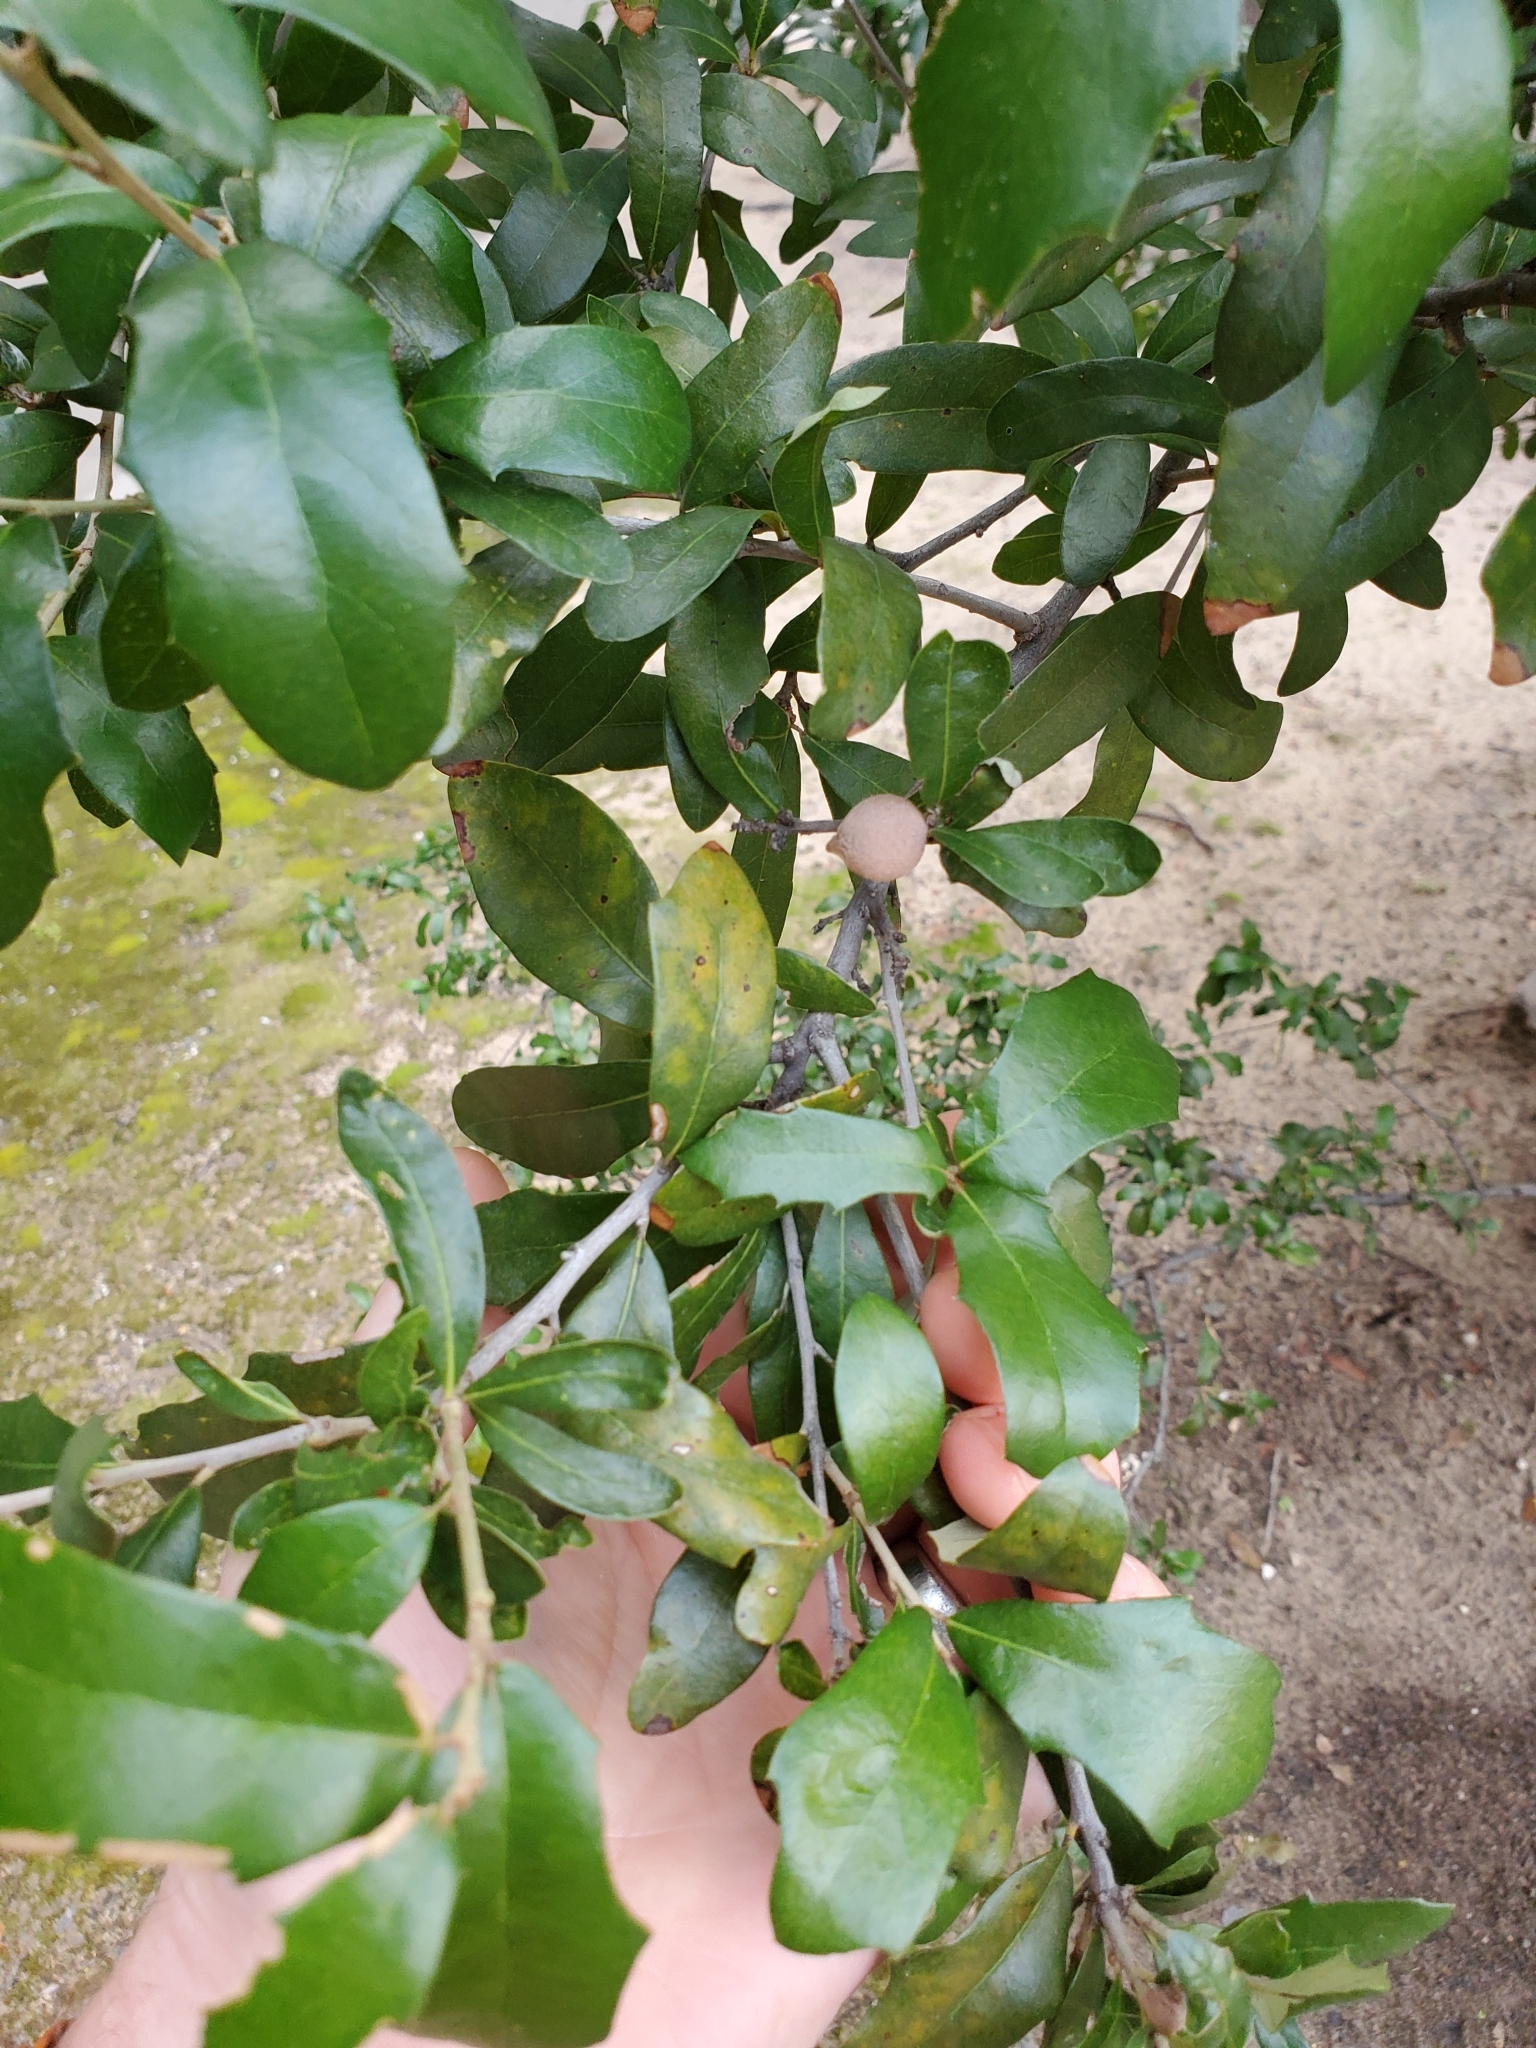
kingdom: Animalia
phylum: Arthropoda
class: Insecta
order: Hymenoptera
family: Cynipidae
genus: Callirhytis
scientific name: Callirhytis
